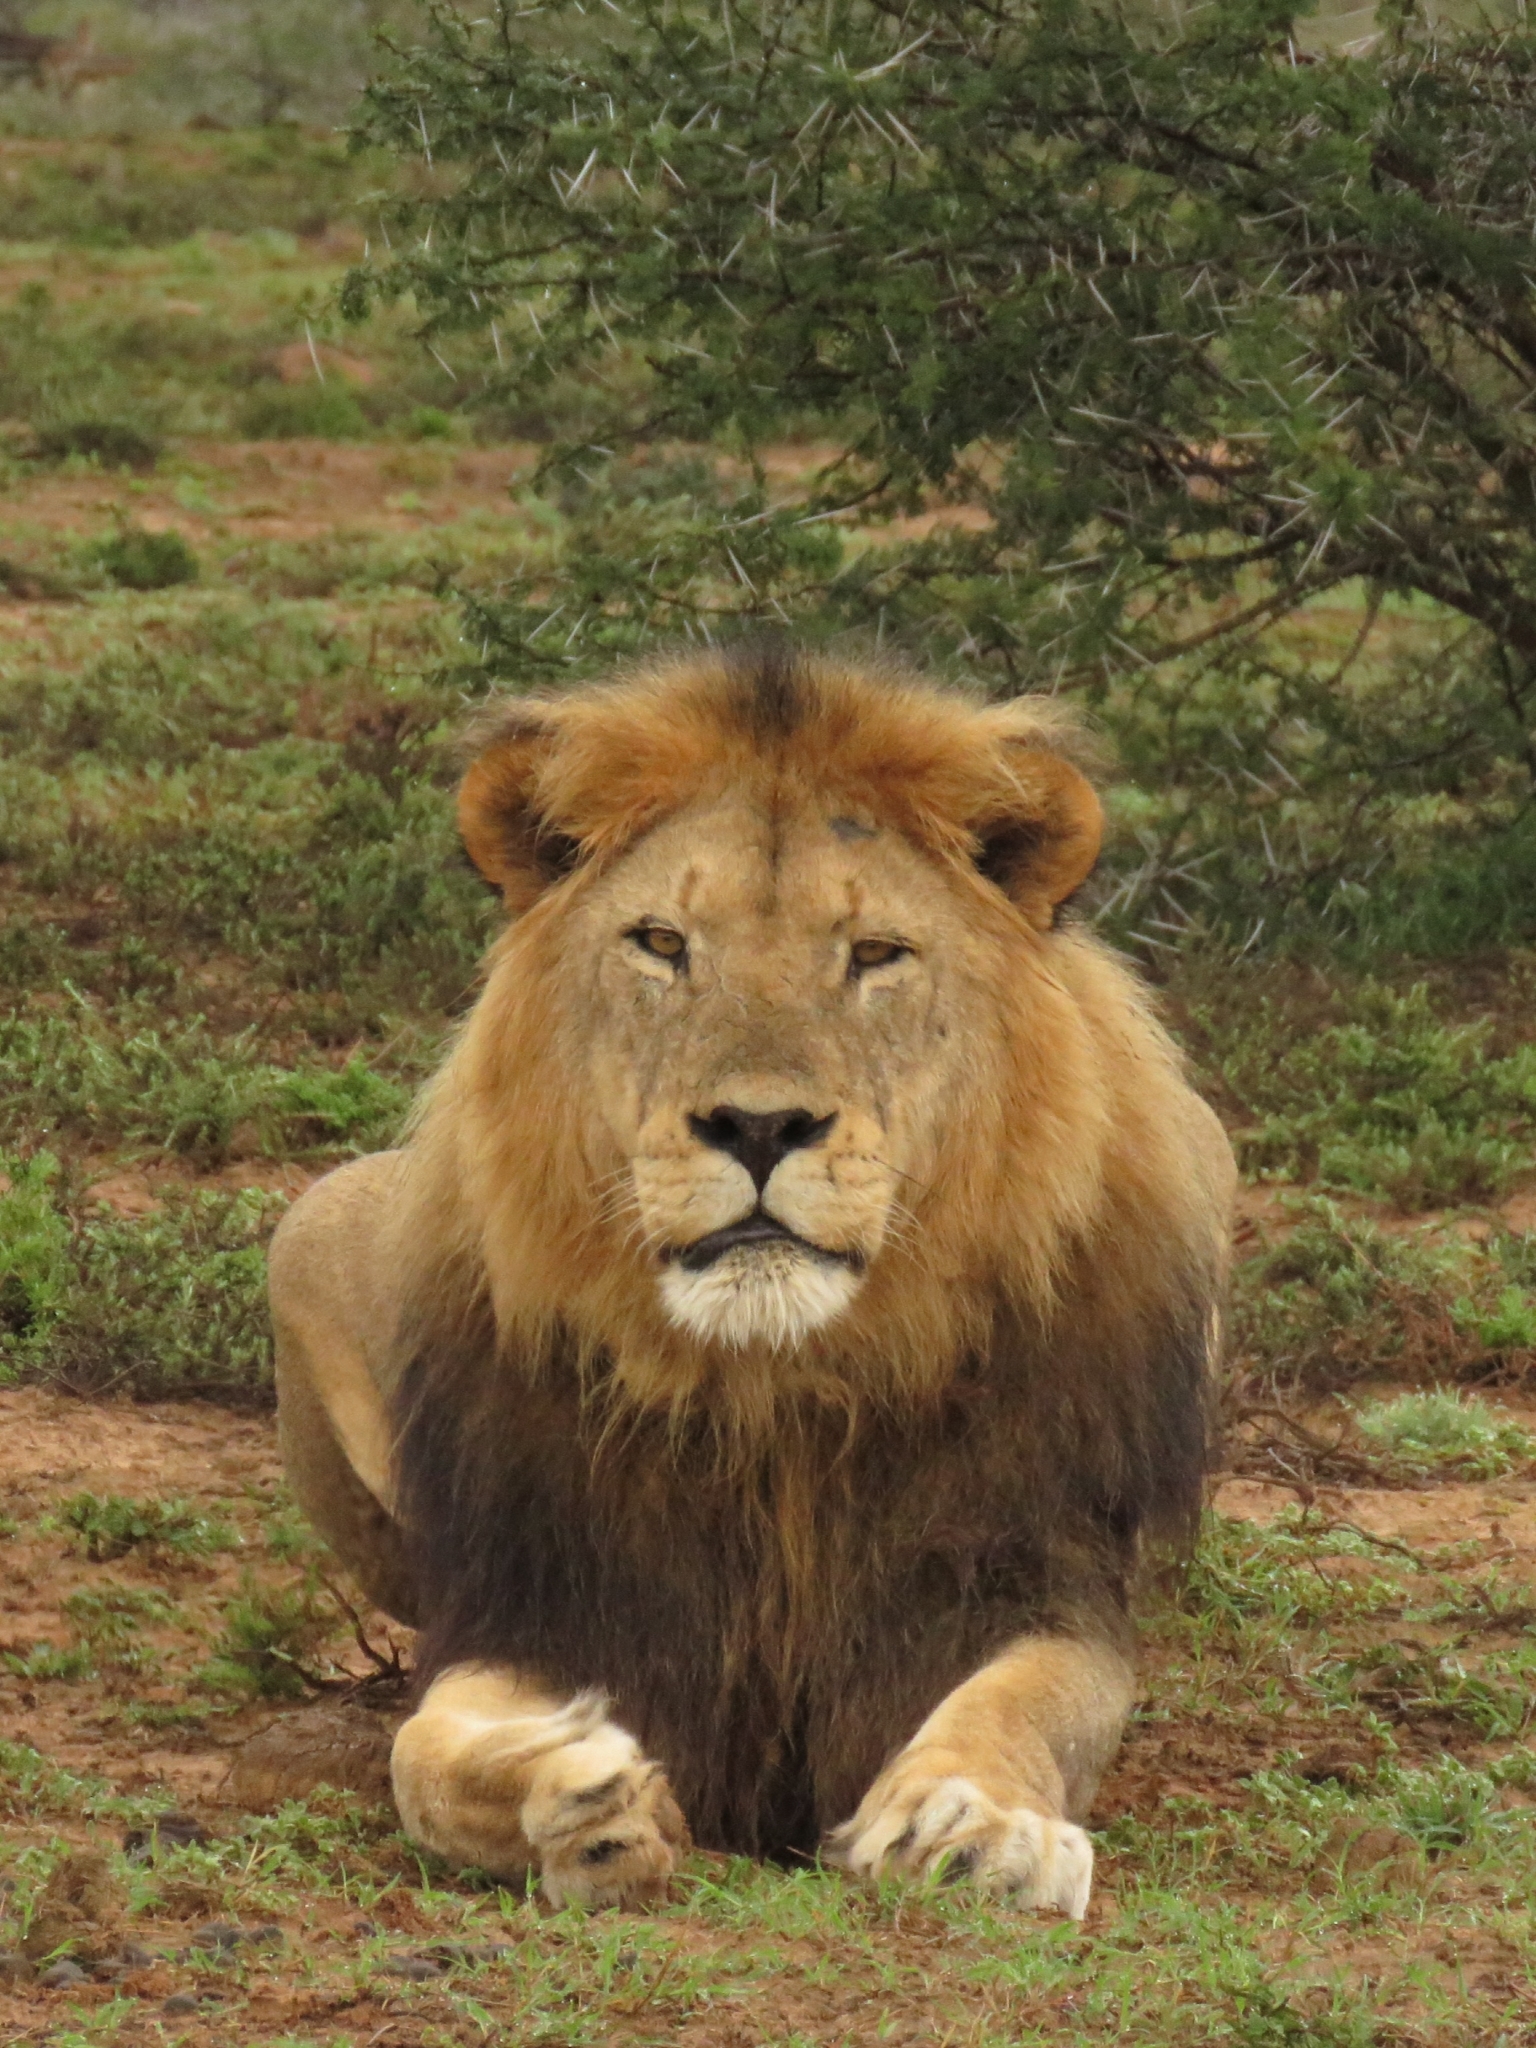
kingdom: Animalia
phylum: Chordata
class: Mammalia
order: Carnivora
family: Felidae
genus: Panthera
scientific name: Panthera leo
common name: Lion
